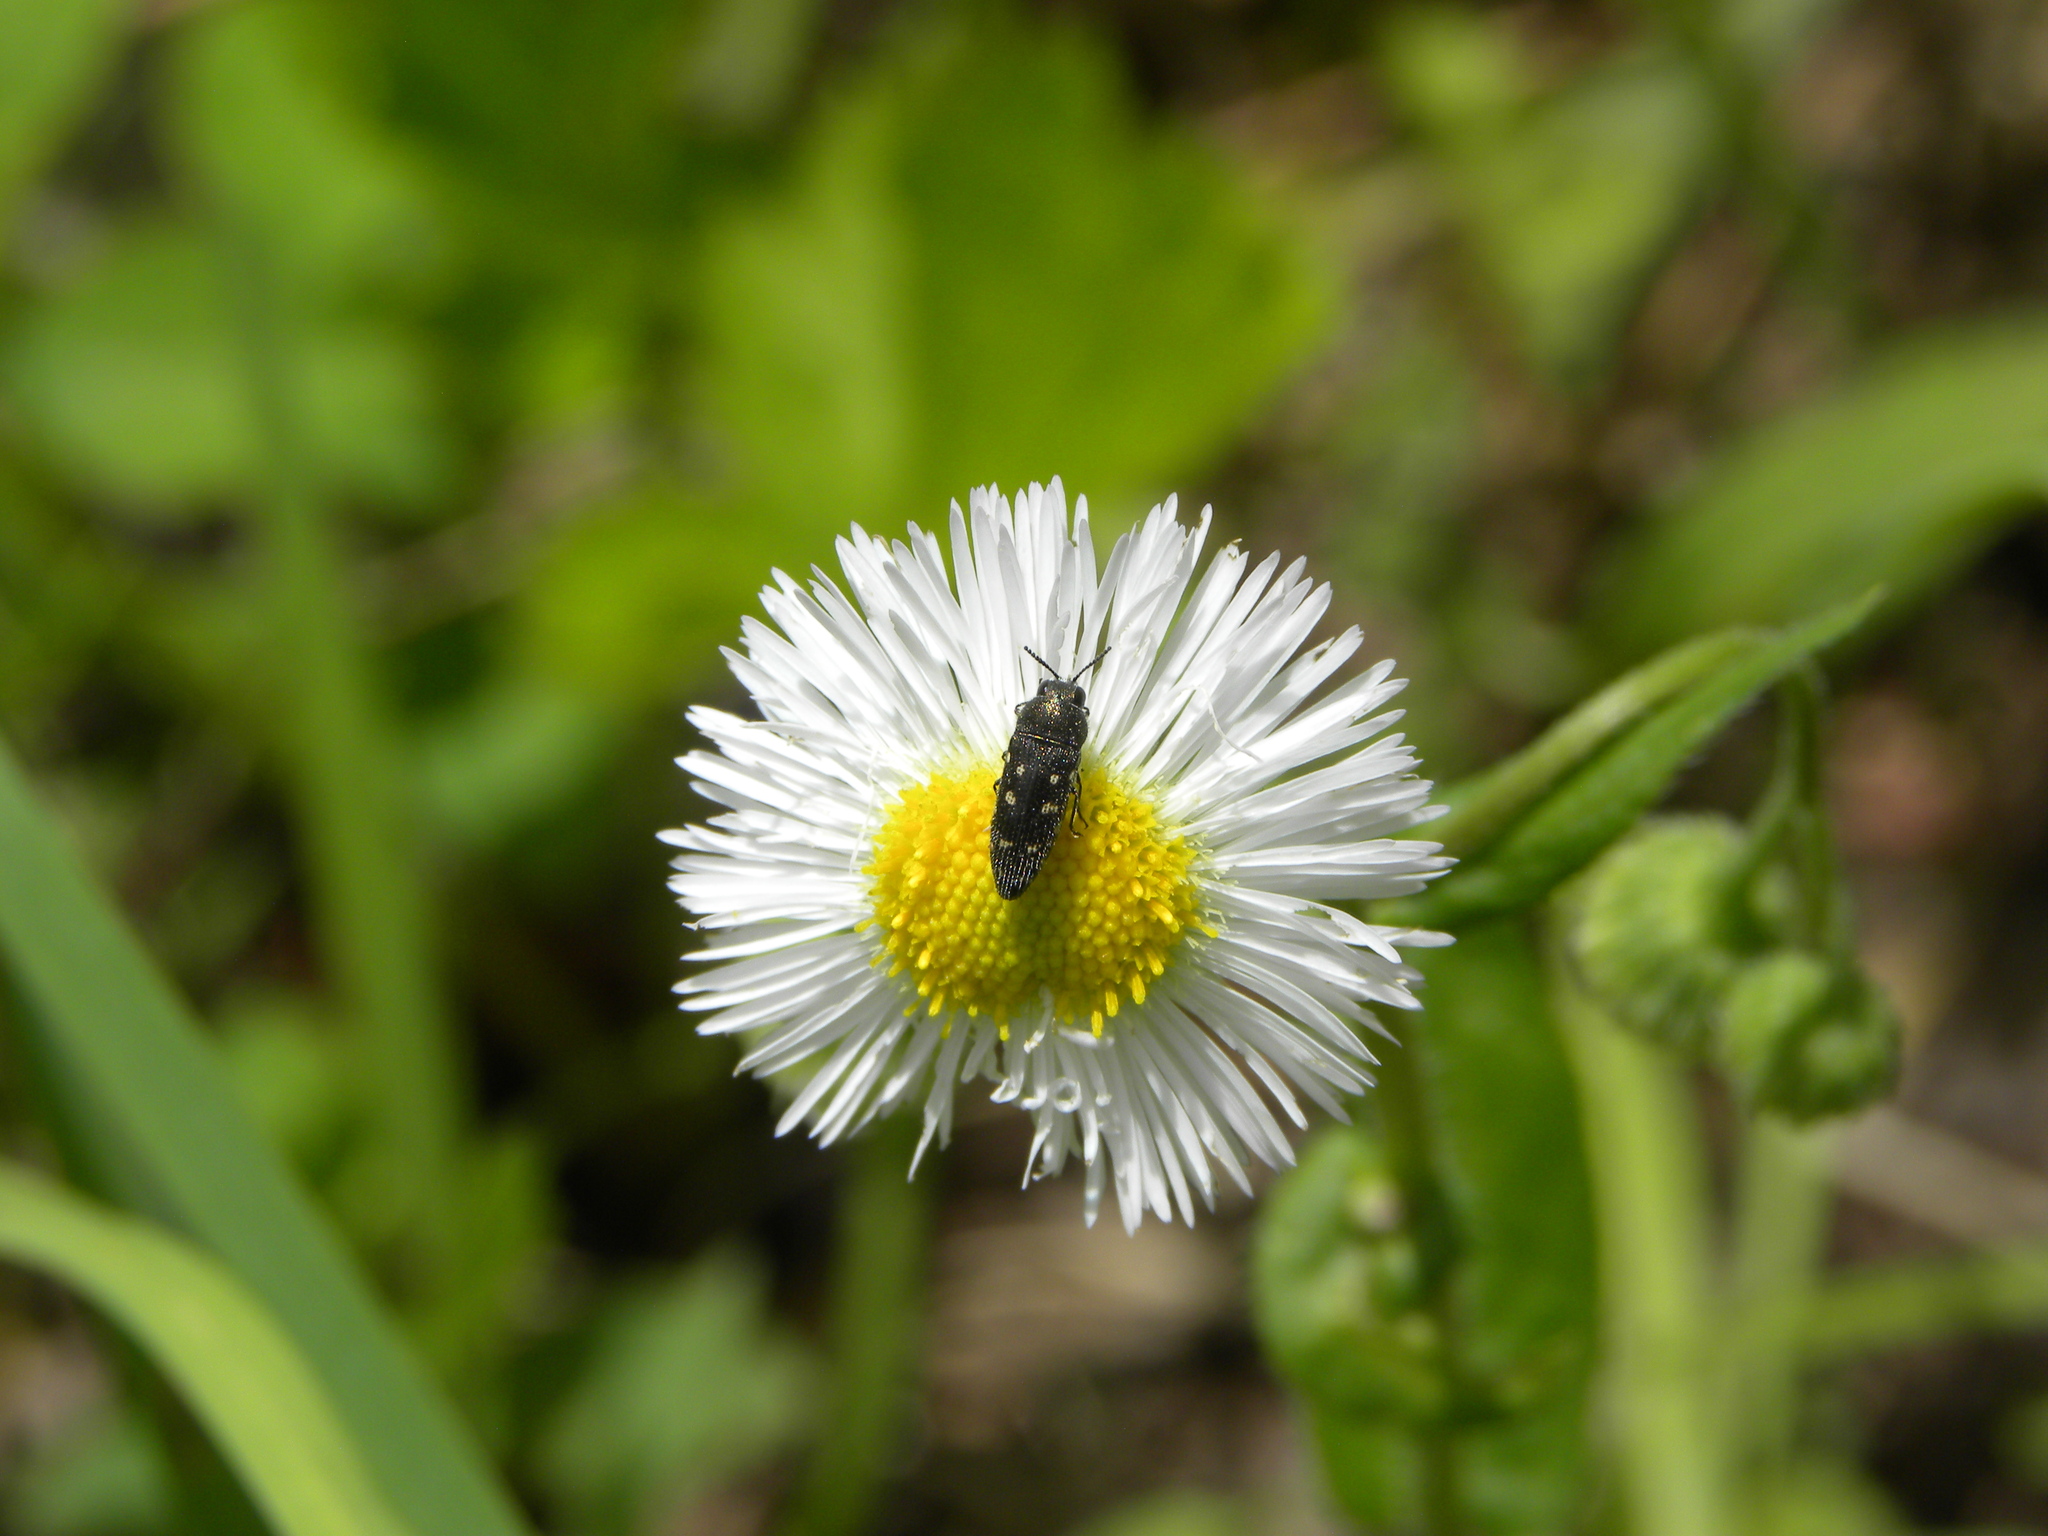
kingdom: Animalia
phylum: Arthropoda
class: Insecta
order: Coleoptera
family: Buprestidae
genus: Acmaeodera
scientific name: Acmaeodera tubulus
